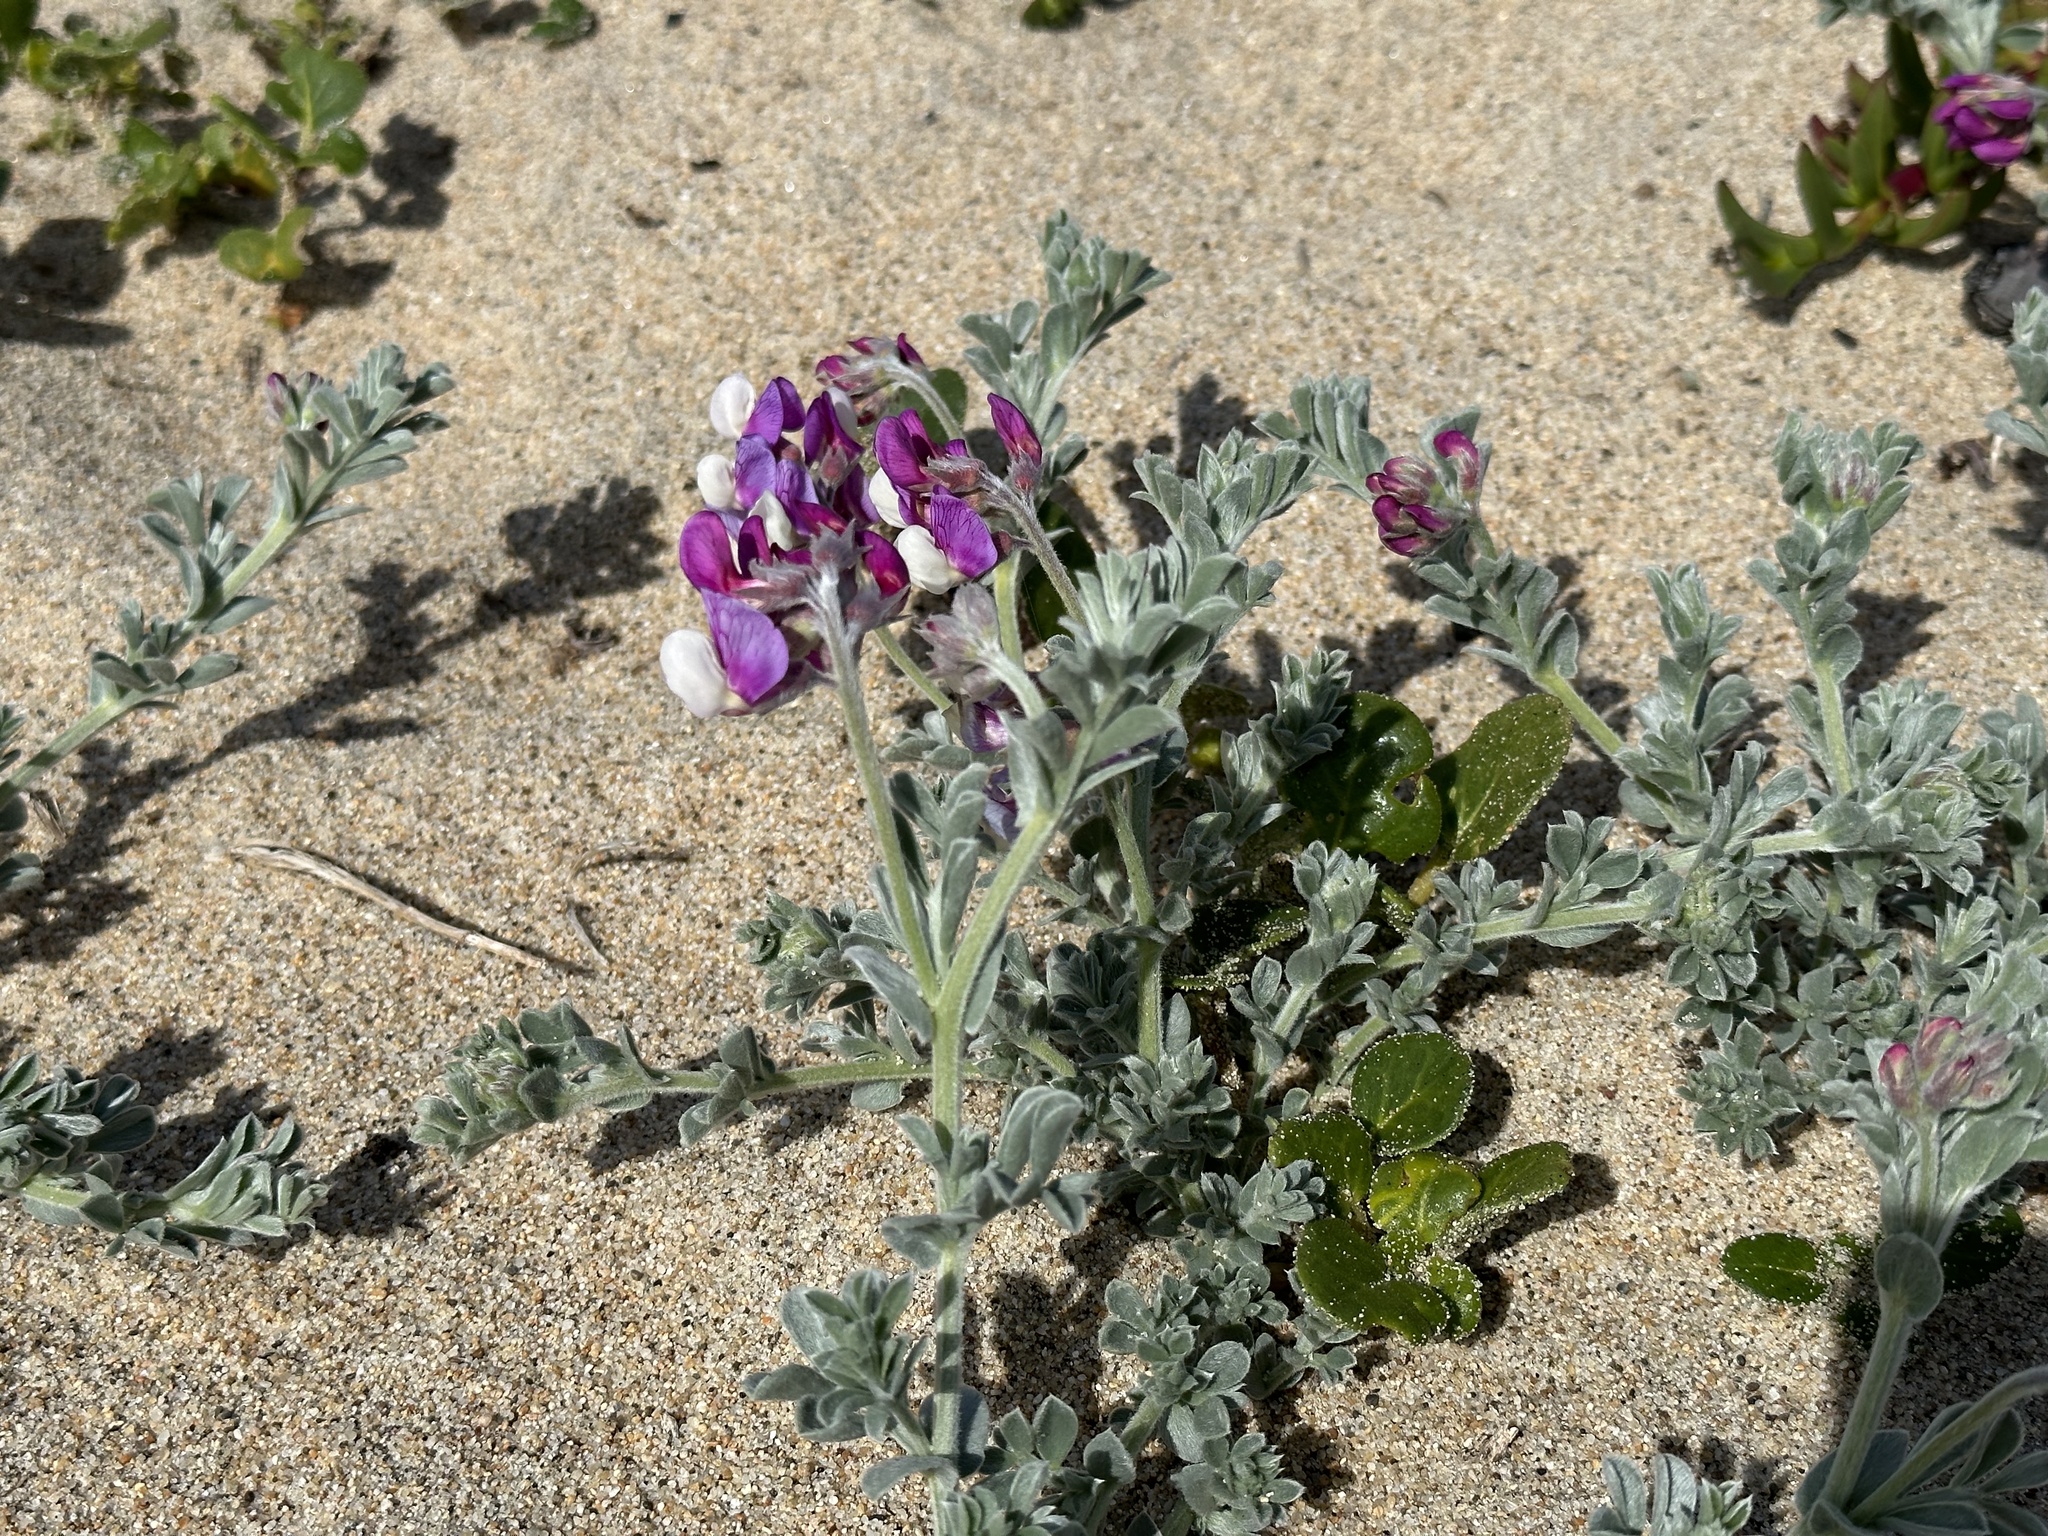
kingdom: Plantae
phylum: Tracheophyta
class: Magnoliopsida
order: Fabales
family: Fabaceae
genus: Lathyrus
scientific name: Lathyrus littoralis
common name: Dune sweet pea
